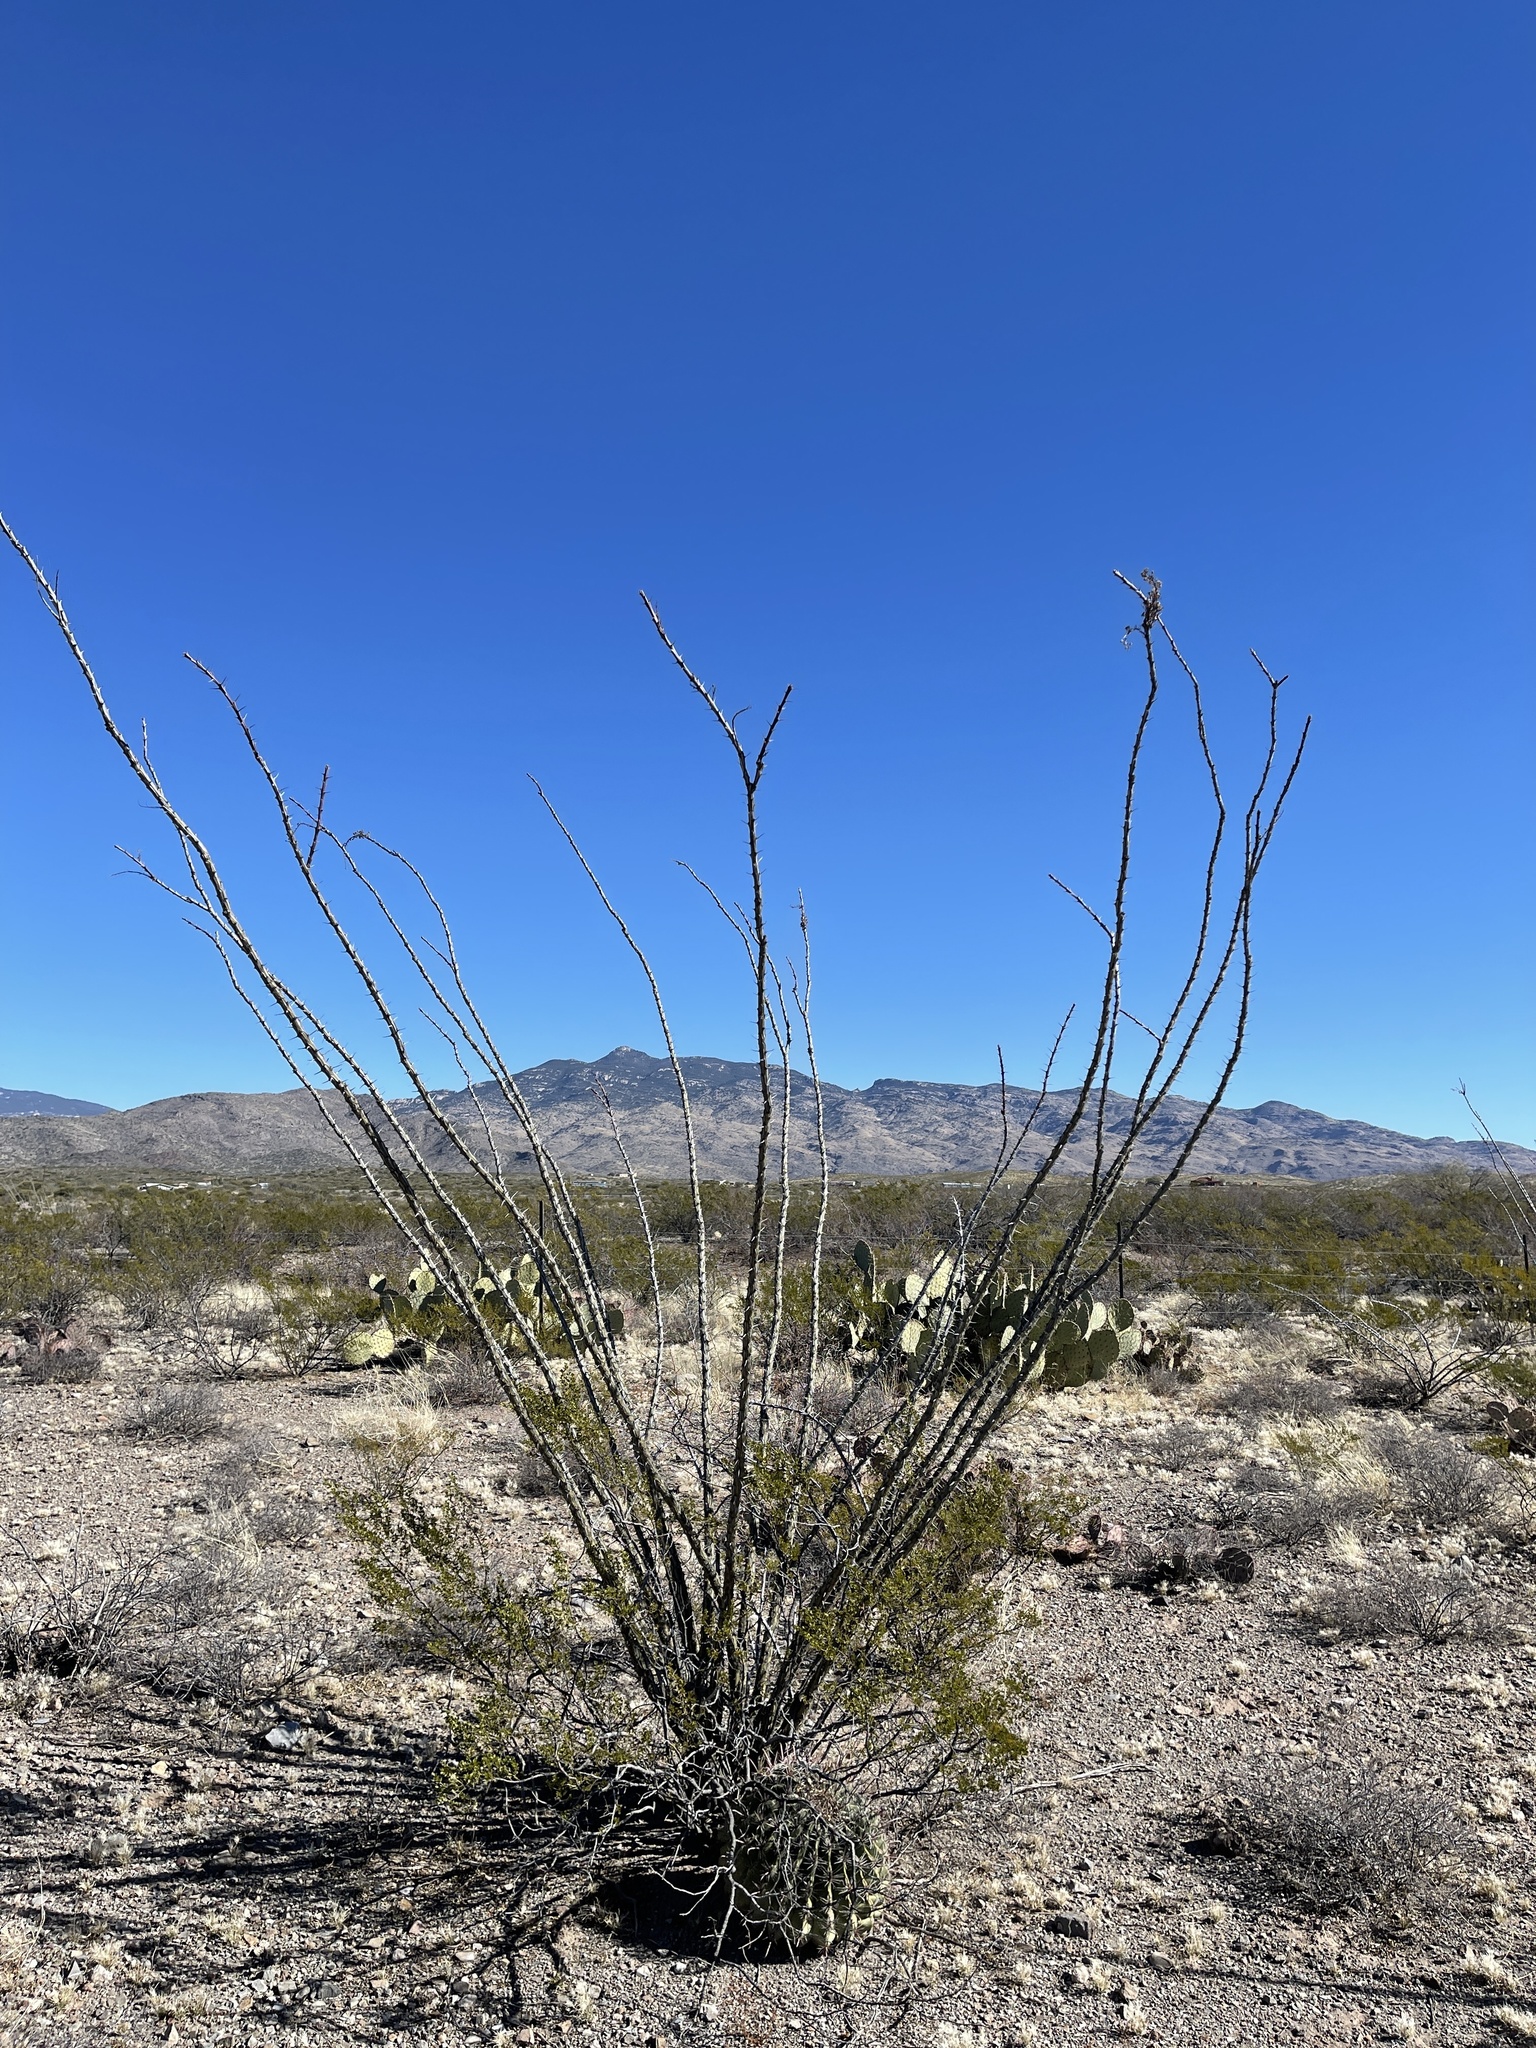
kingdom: Plantae
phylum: Tracheophyta
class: Magnoliopsida
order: Ericales
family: Fouquieriaceae
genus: Fouquieria
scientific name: Fouquieria splendens
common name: Vine-cactus
